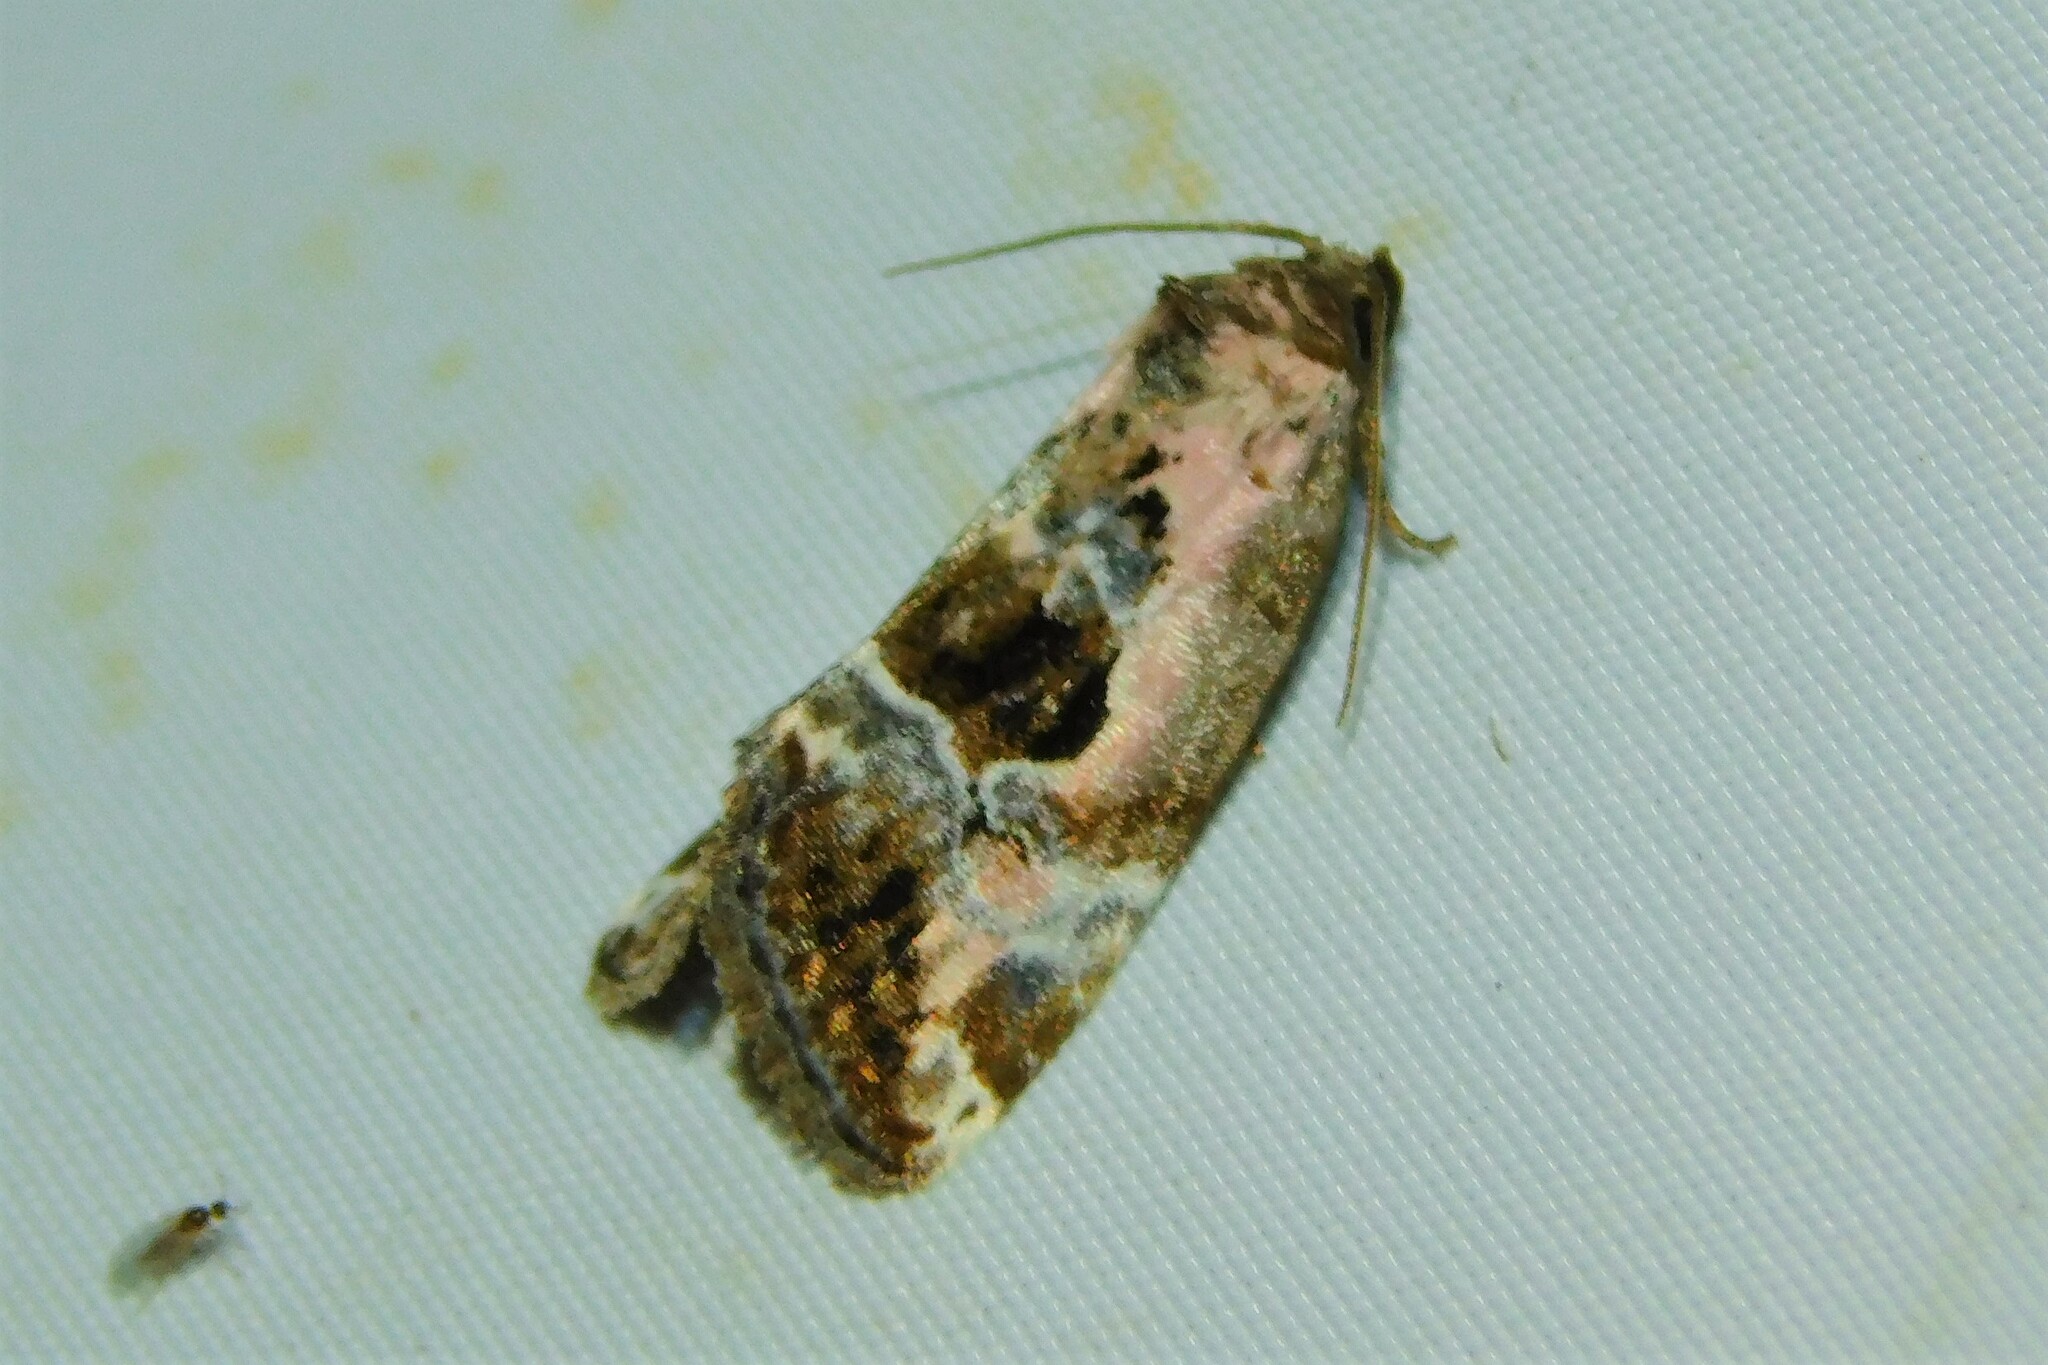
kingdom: Animalia
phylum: Arthropoda
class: Insecta
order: Lepidoptera
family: Noctuidae
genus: Elaphria
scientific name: Elaphria venustula
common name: Rosy marbled
